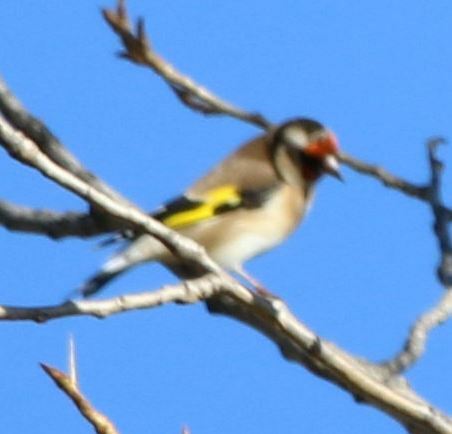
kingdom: Animalia
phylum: Chordata
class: Aves
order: Passeriformes
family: Fringillidae
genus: Carduelis
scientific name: Carduelis carduelis
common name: European goldfinch
